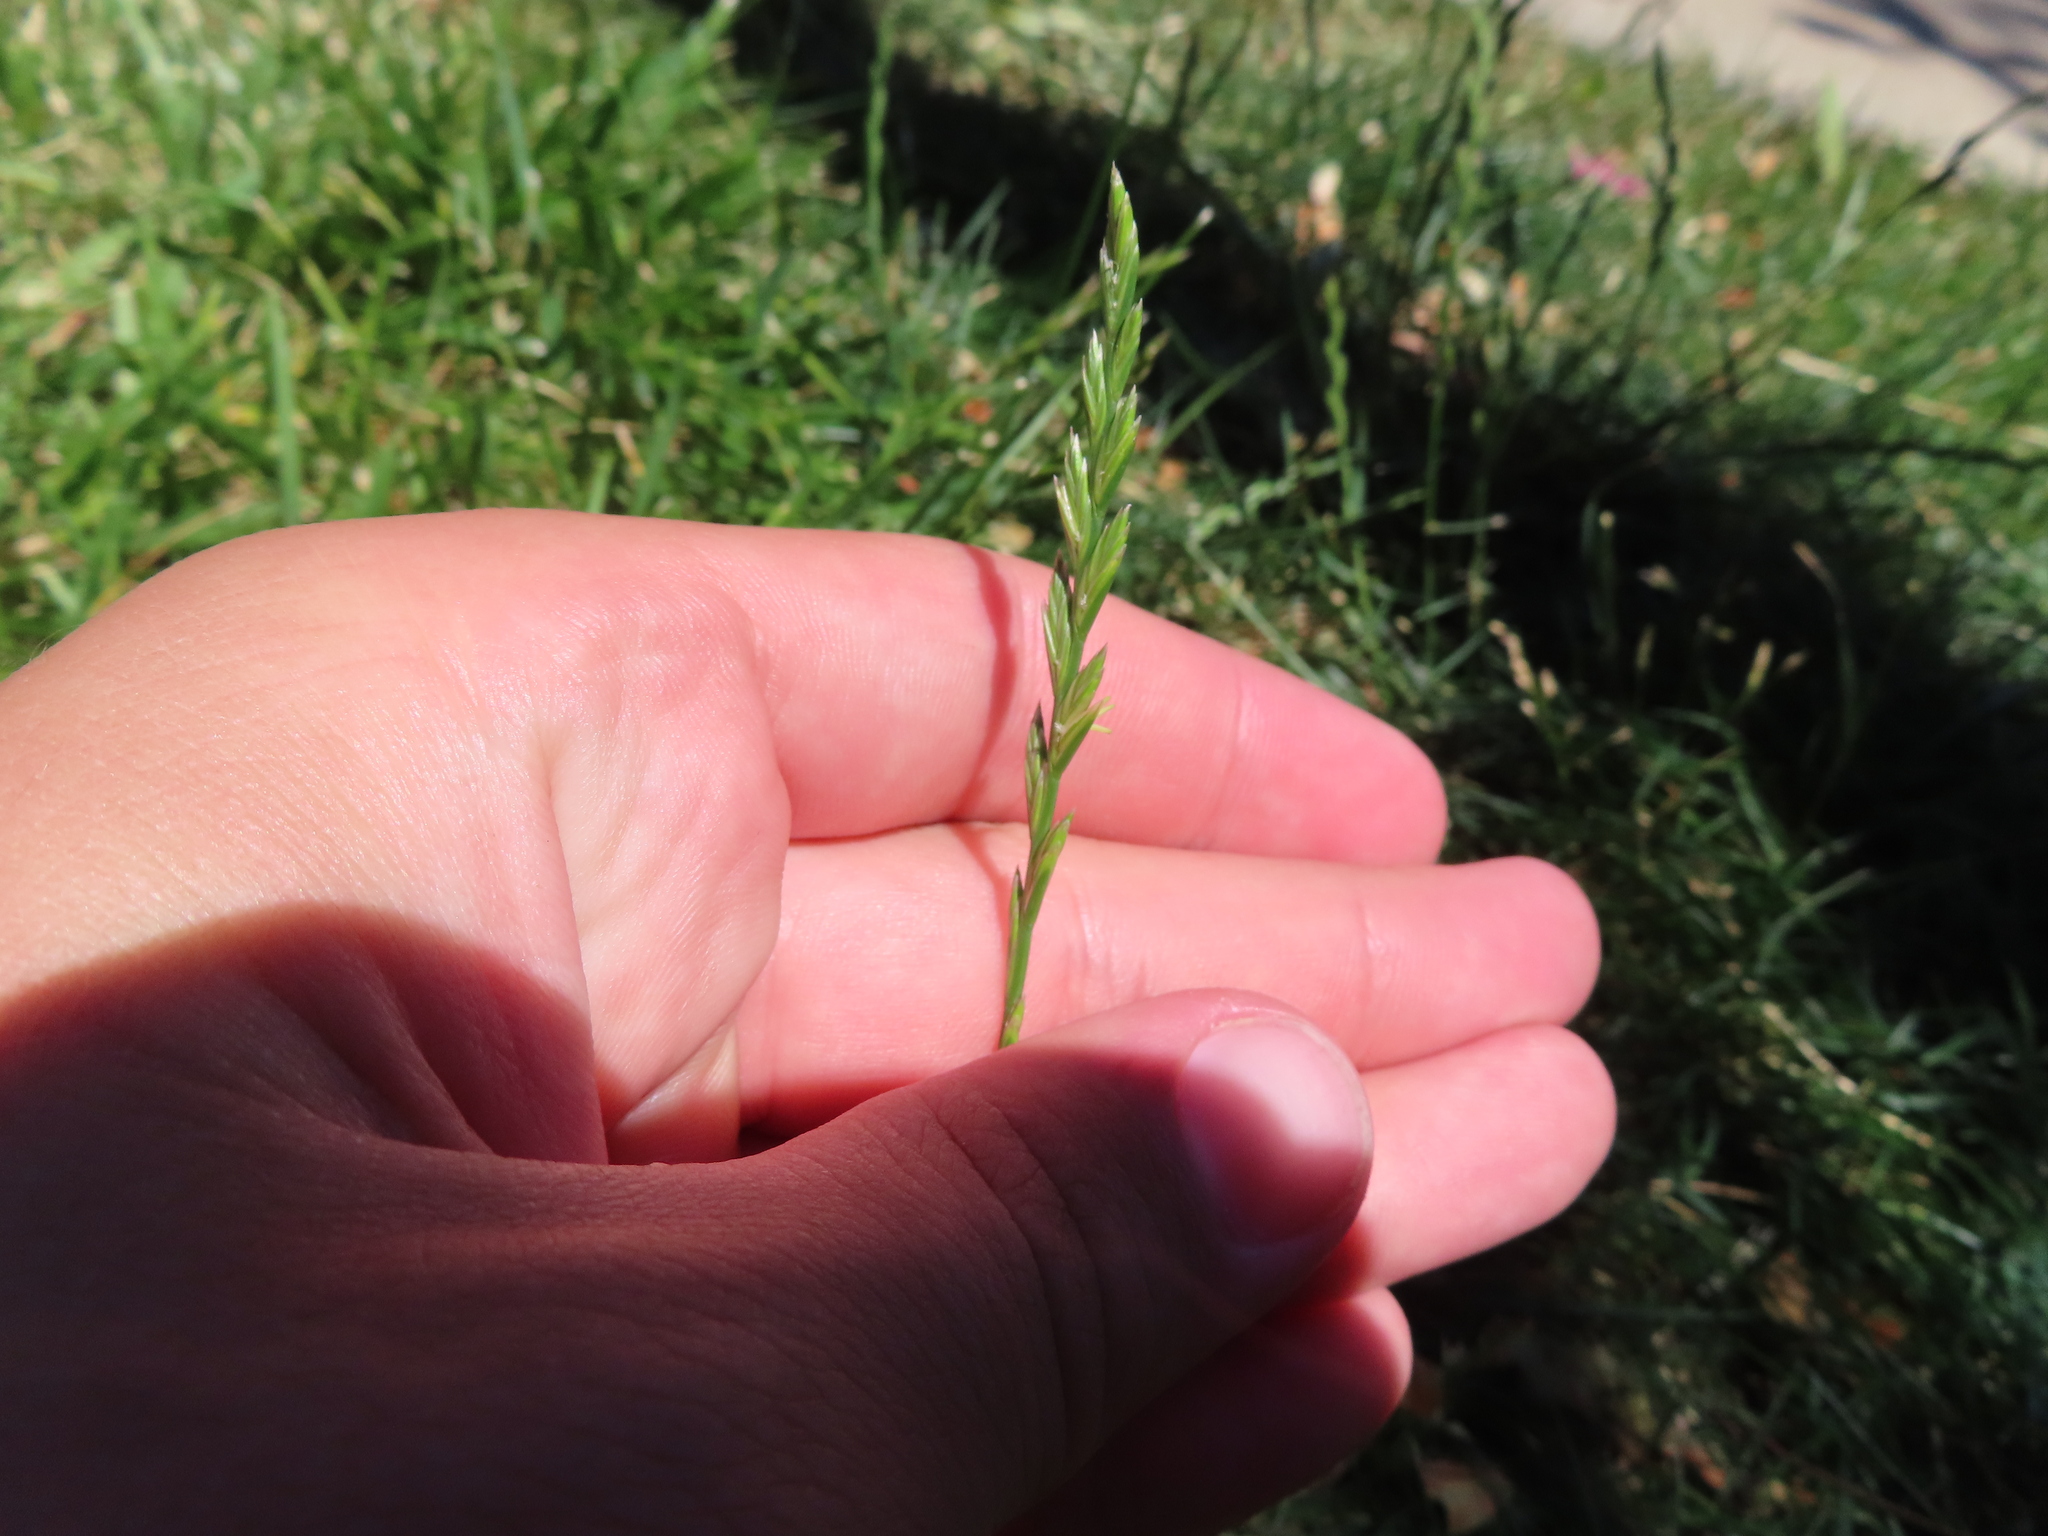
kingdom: Plantae
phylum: Tracheophyta
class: Liliopsida
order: Poales
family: Poaceae
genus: Lolium
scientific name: Lolium perenne
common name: Perennial ryegrass
